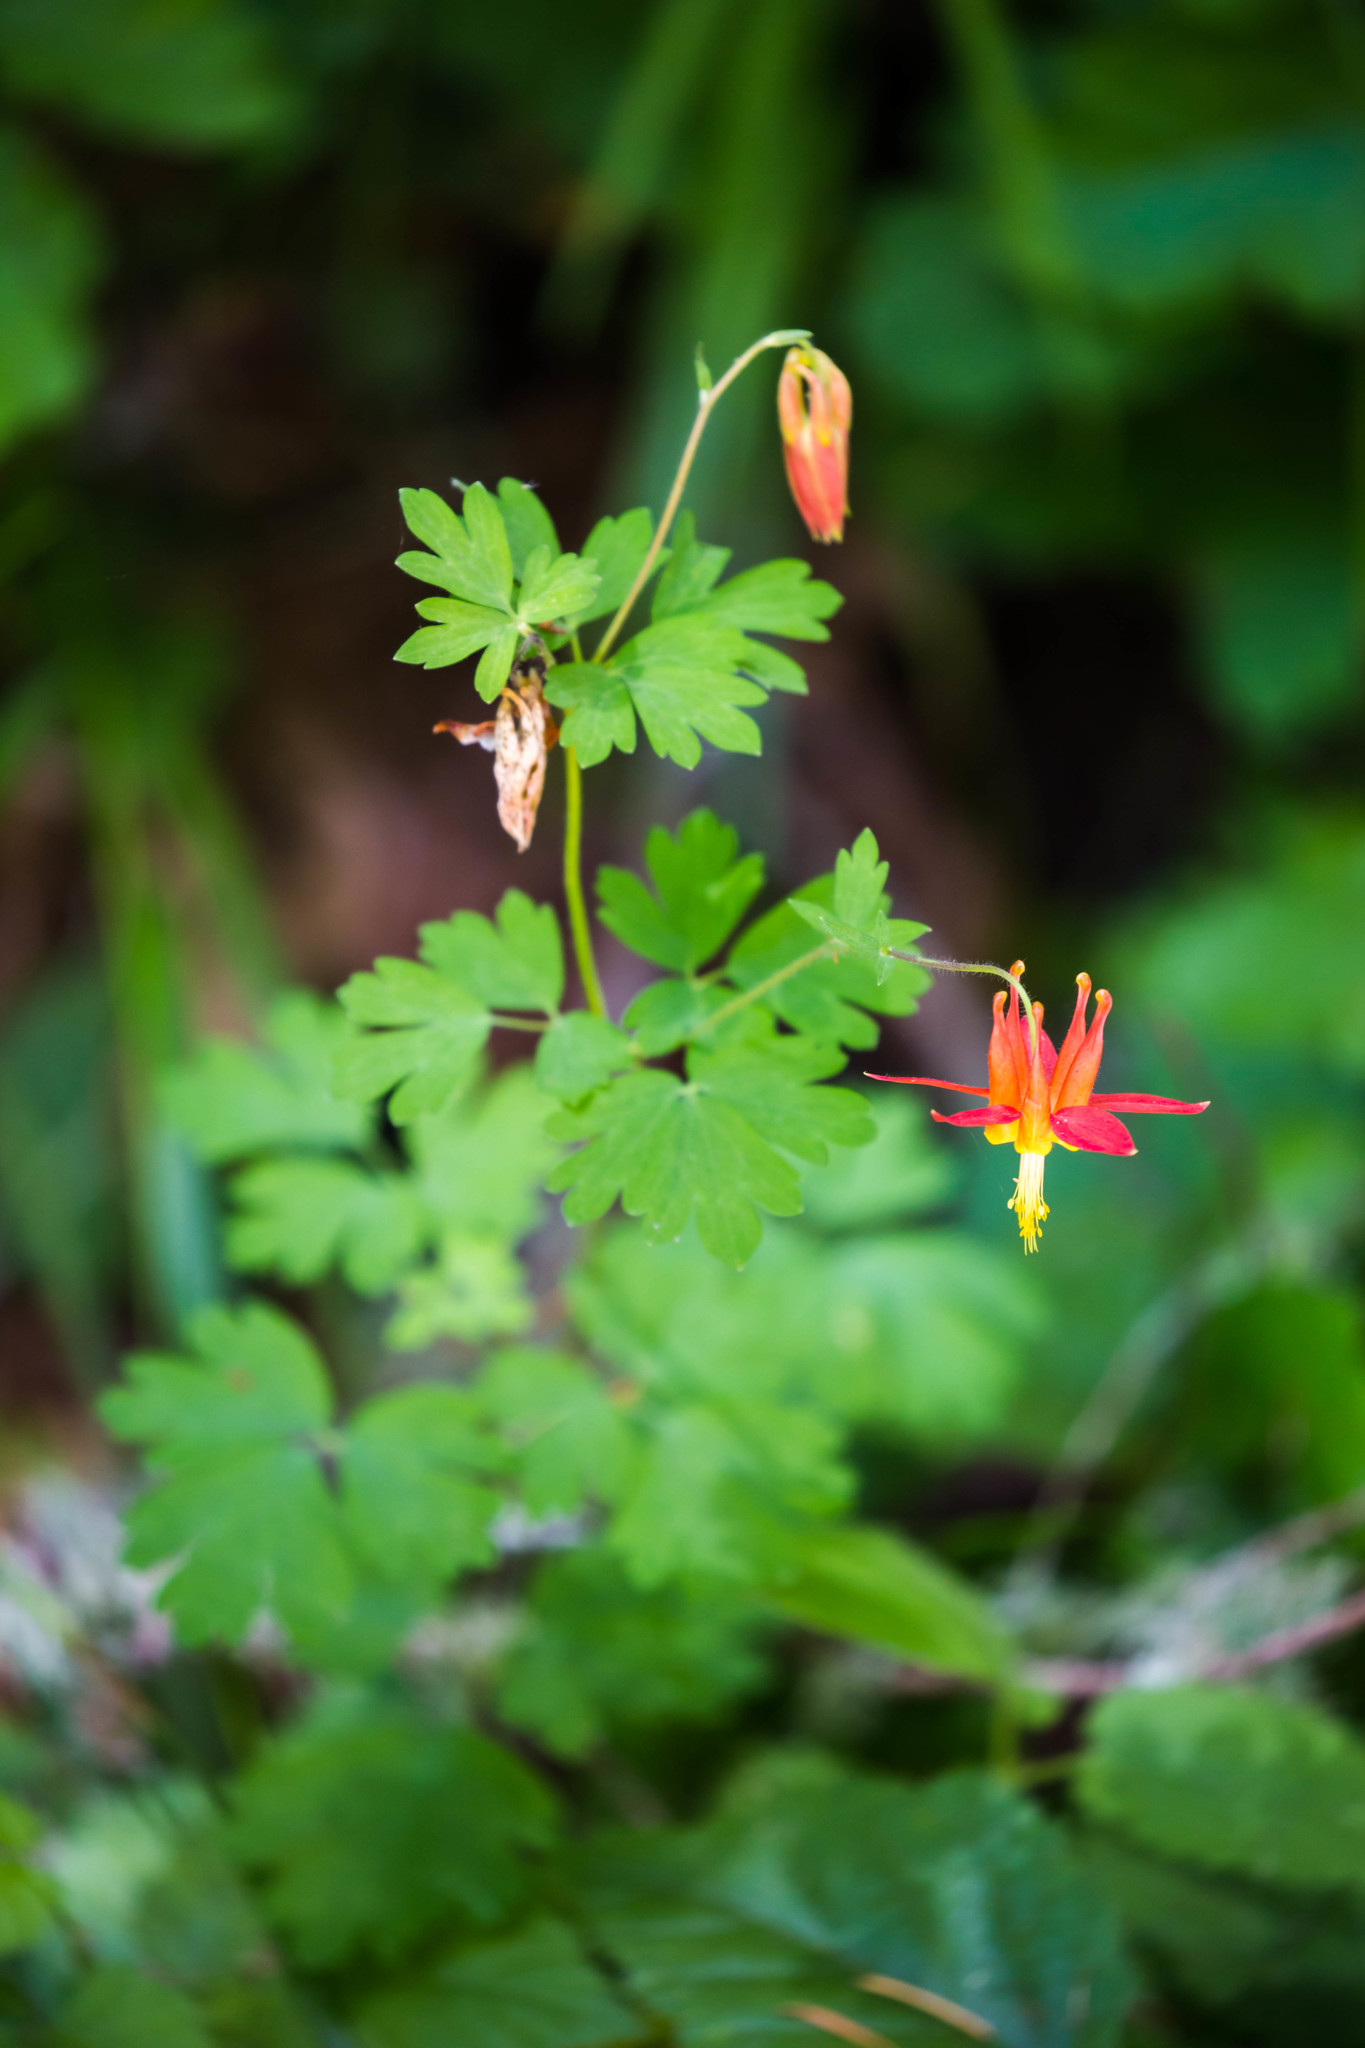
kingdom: Plantae
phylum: Tracheophyta
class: Magnoliopsida
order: Ranunculales
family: Ranunculaceae
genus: Aquilegia
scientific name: Aquilegia formosa
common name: Sitka columbine
